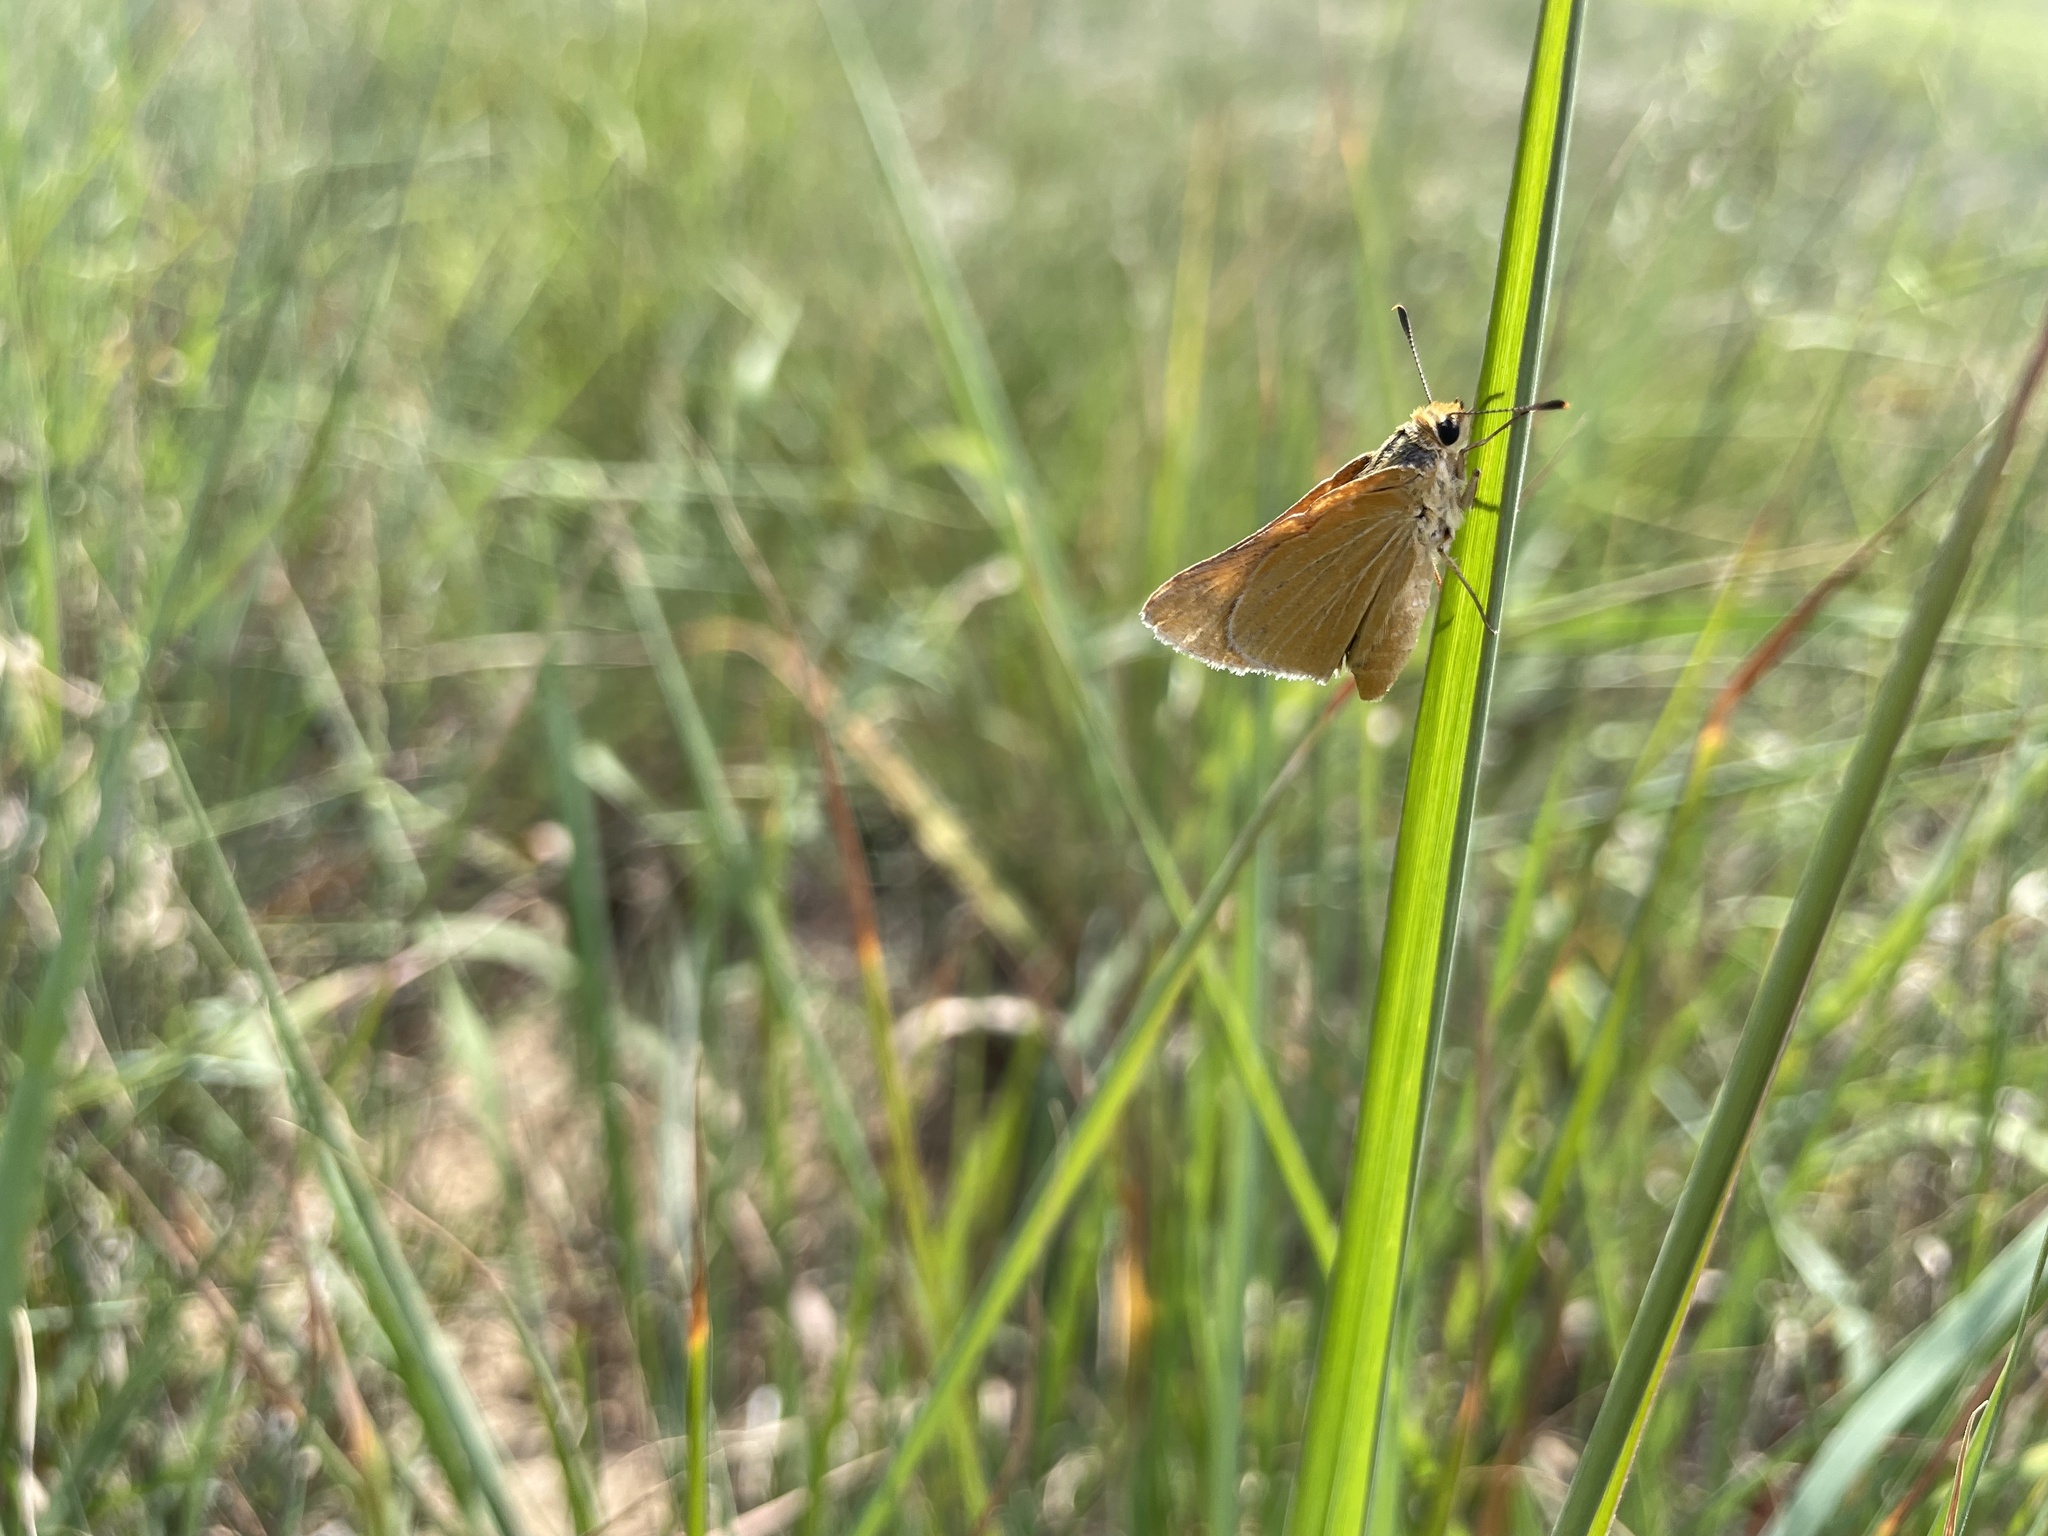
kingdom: Animalia
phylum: Arthropoda
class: Insecta
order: Lepidoptera
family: Hesperiidae
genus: Atrytone
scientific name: Atrytone arogos
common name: Arogos skipper
